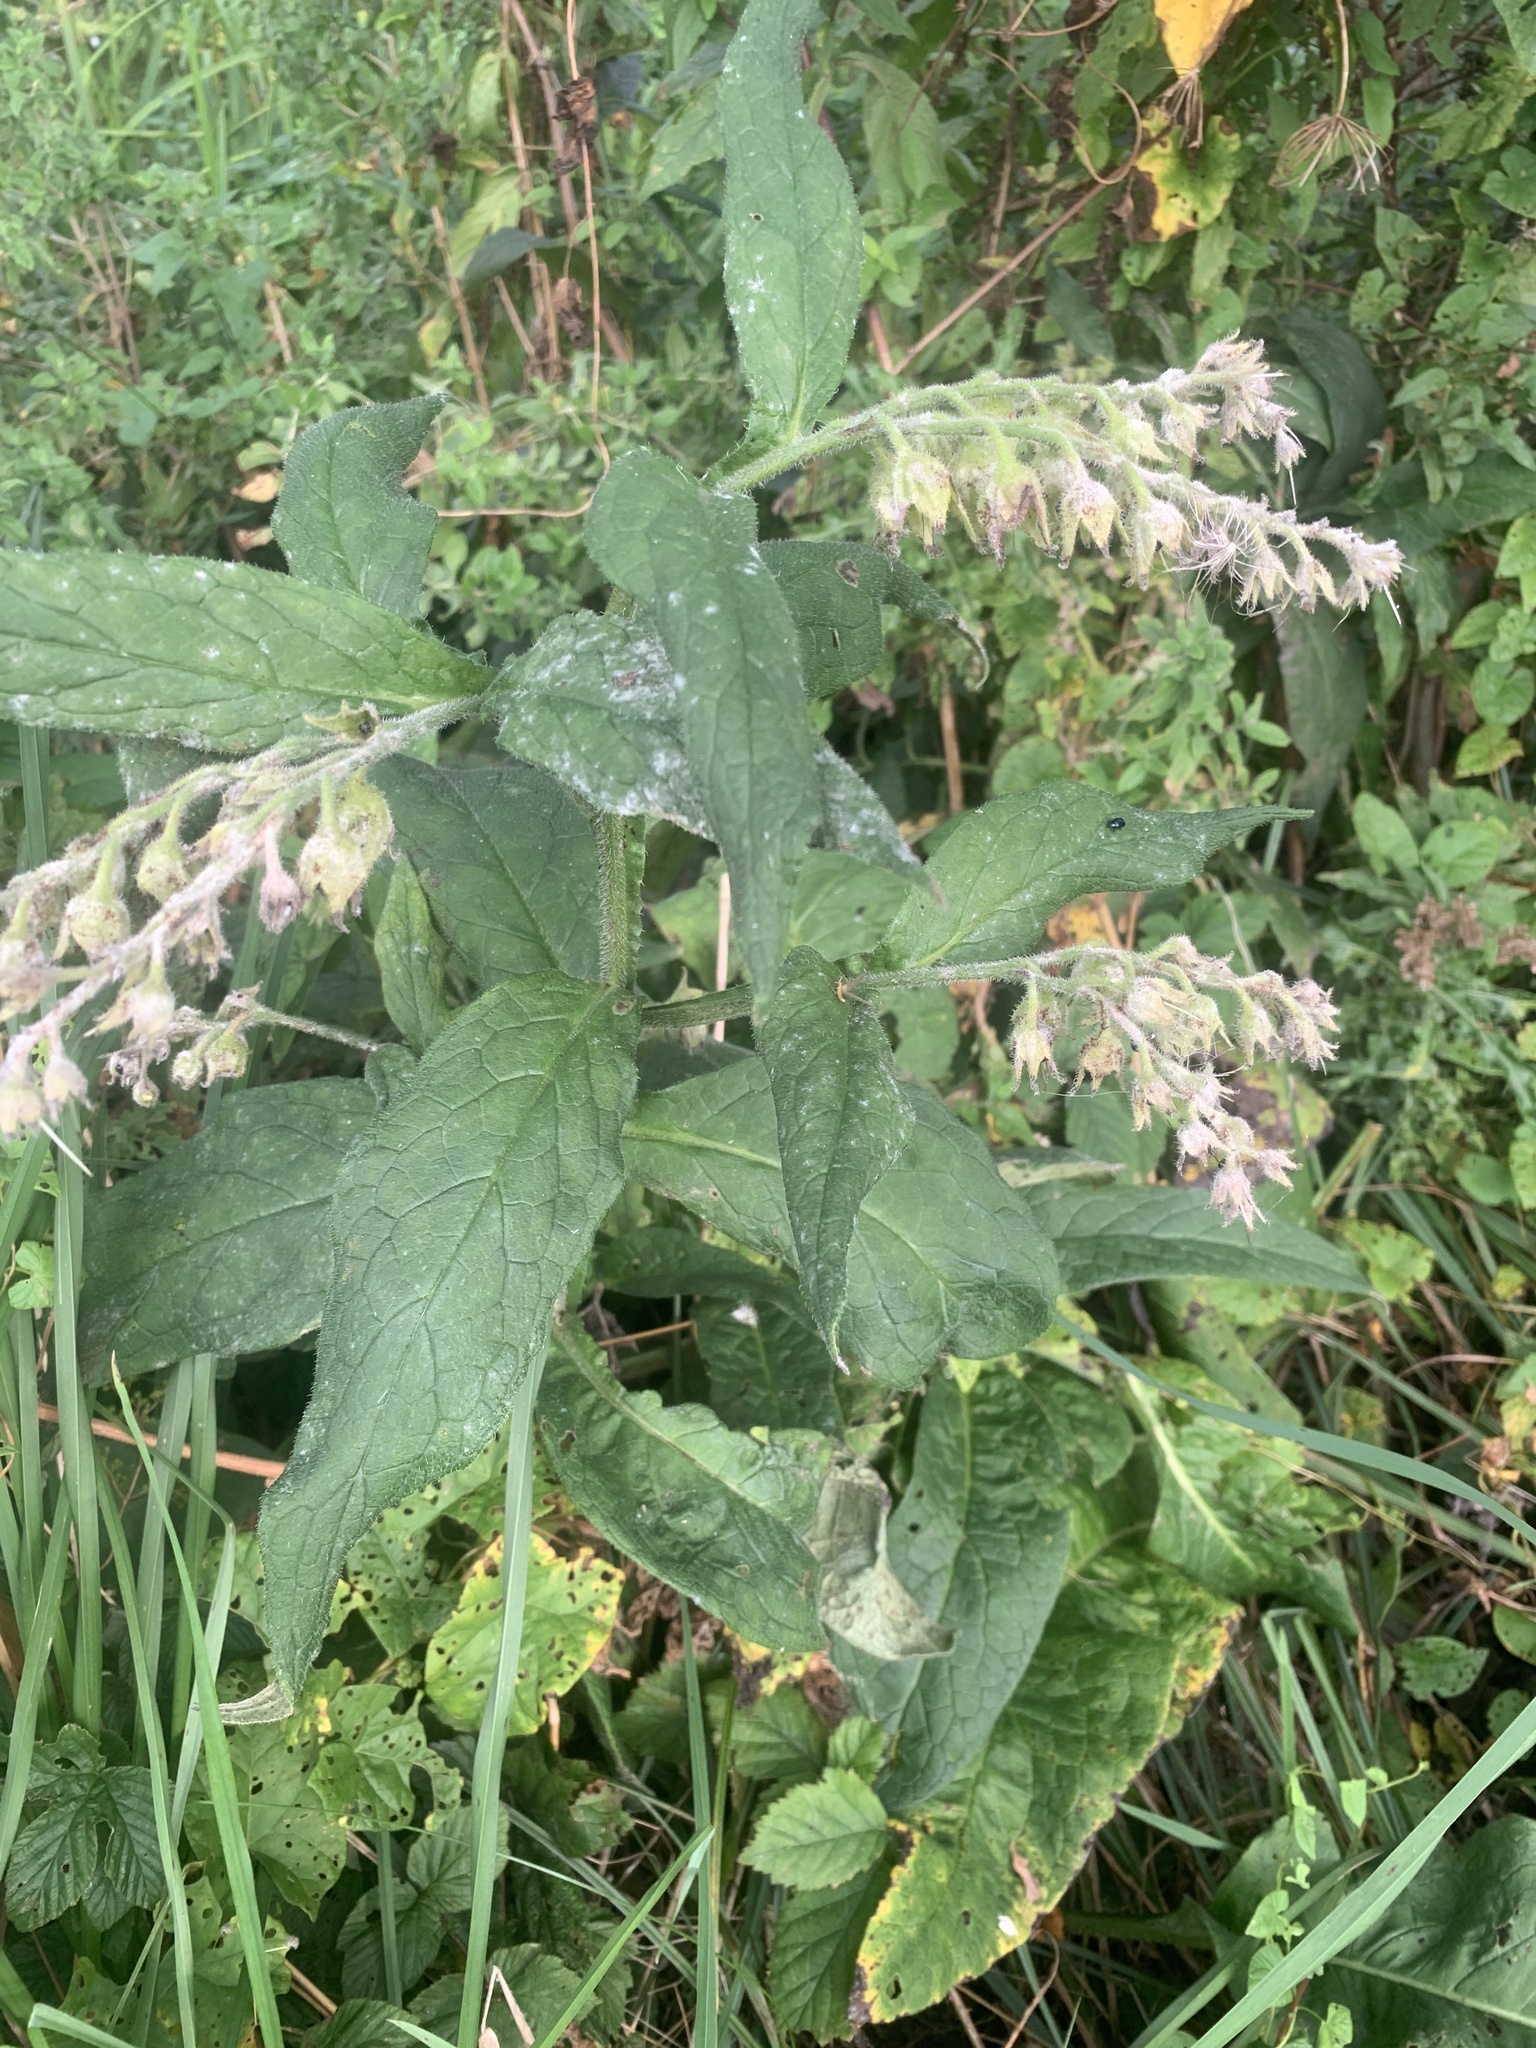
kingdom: Plantae
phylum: Tracheophyta
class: Magnoliopsida
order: Boraginales
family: Boraginaceae
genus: Symphytum
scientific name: Symphytum officinale
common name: Common comfrey
